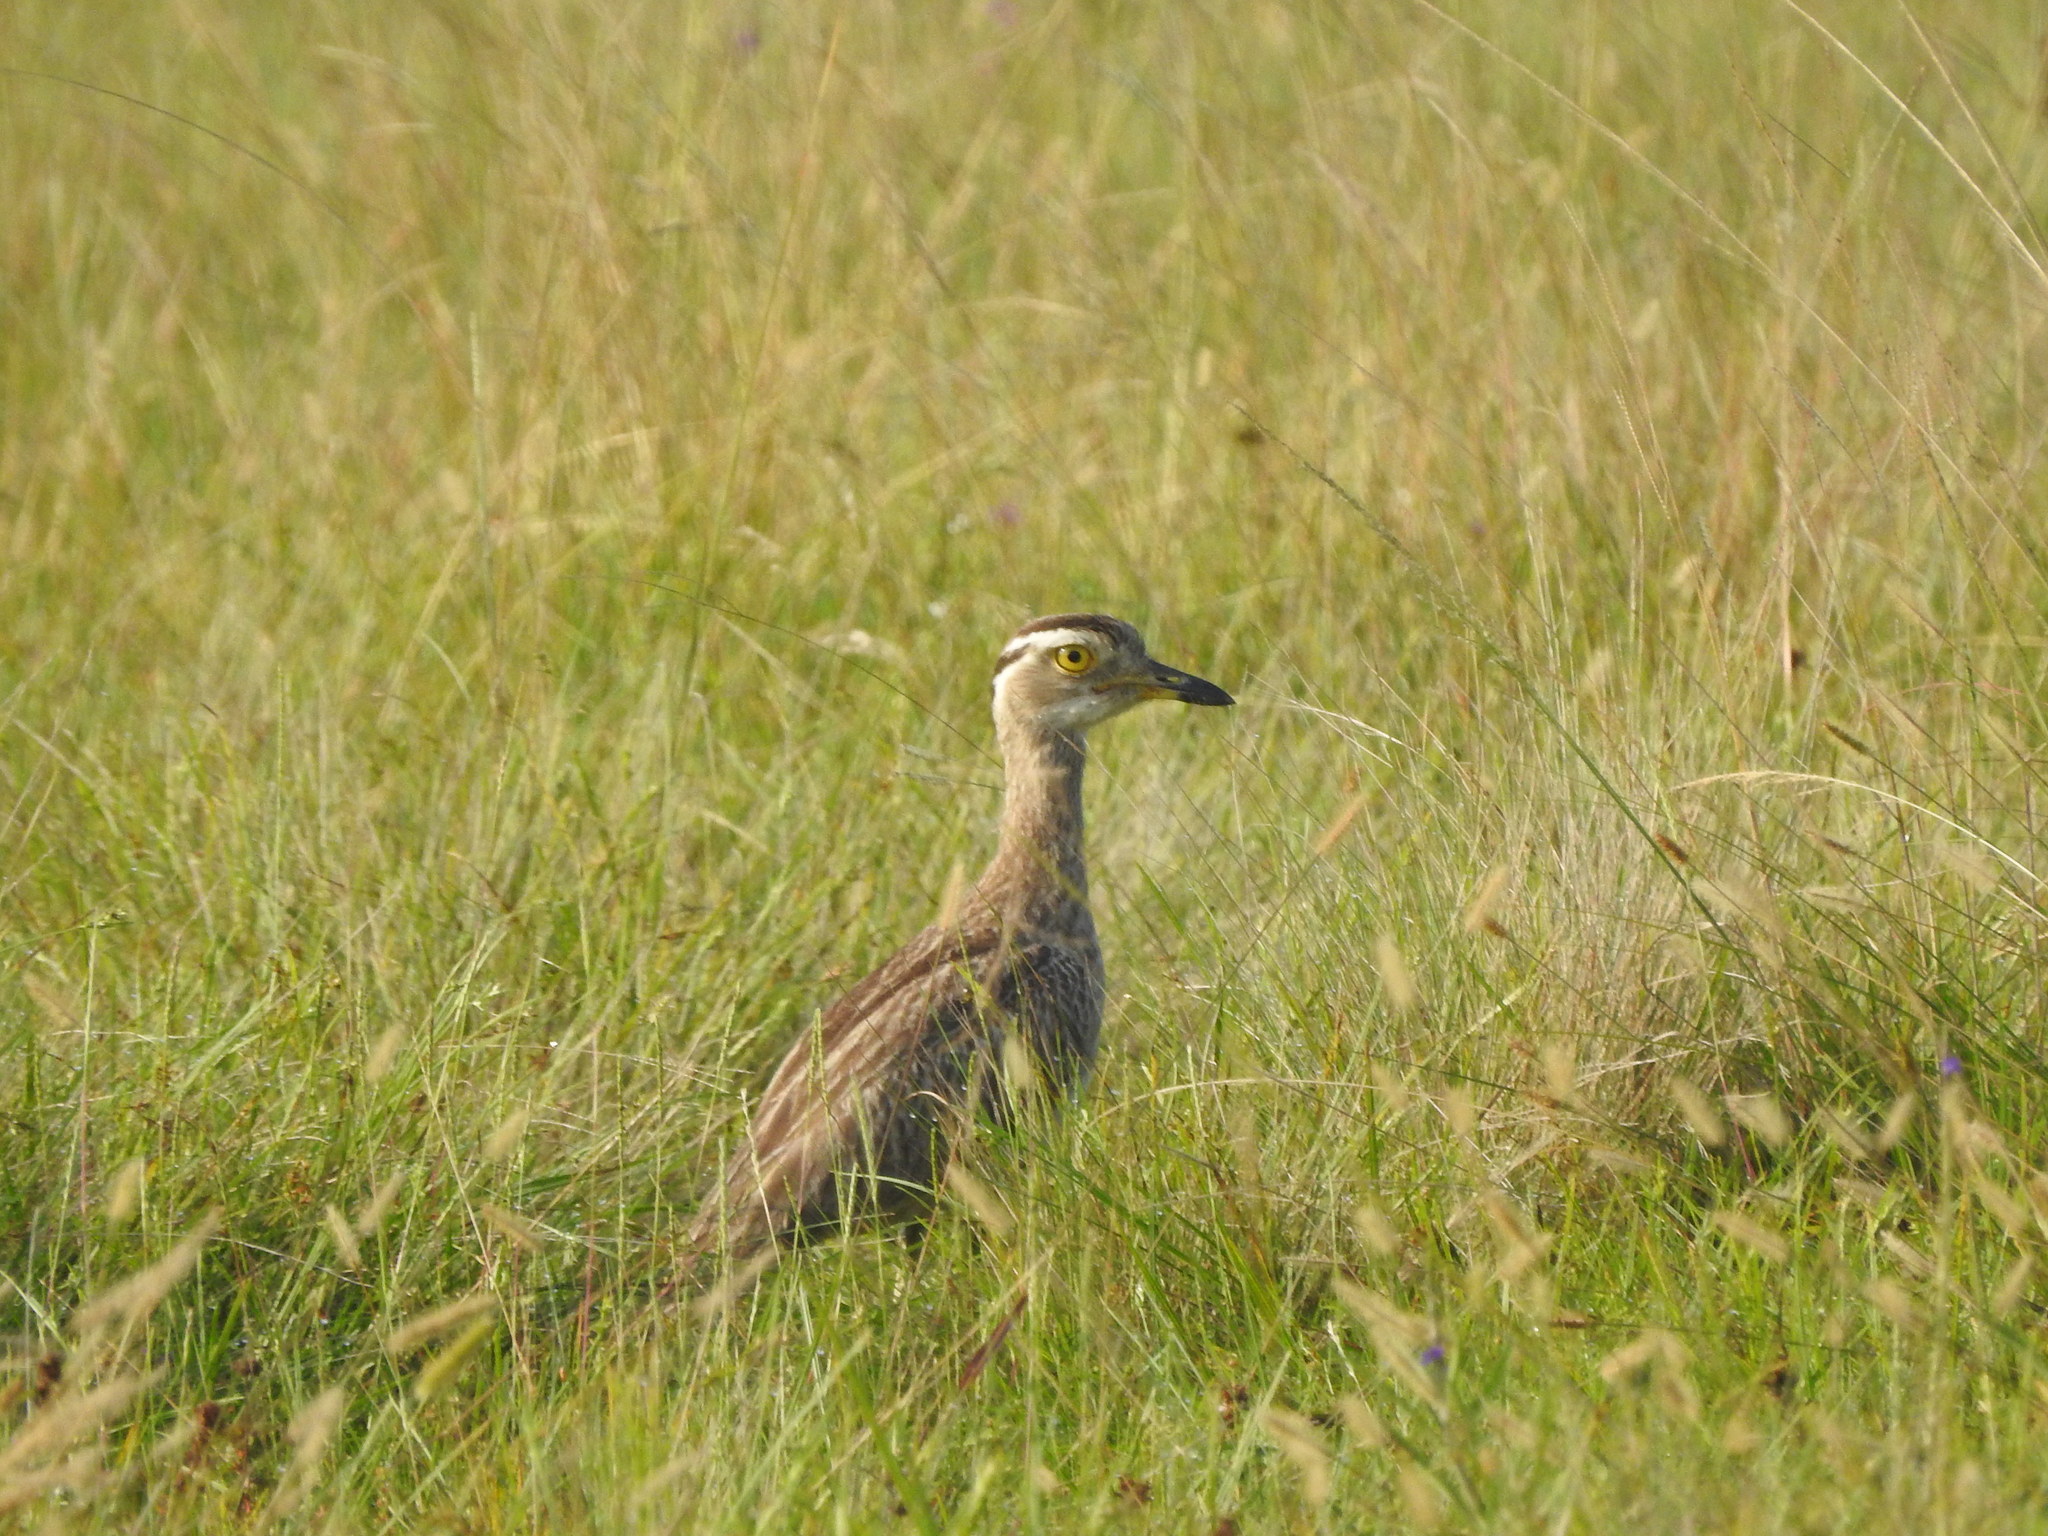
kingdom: Animalia
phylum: Chordata
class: Aves
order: Charadriiformes
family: Burhinidae
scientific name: Burhinidae
